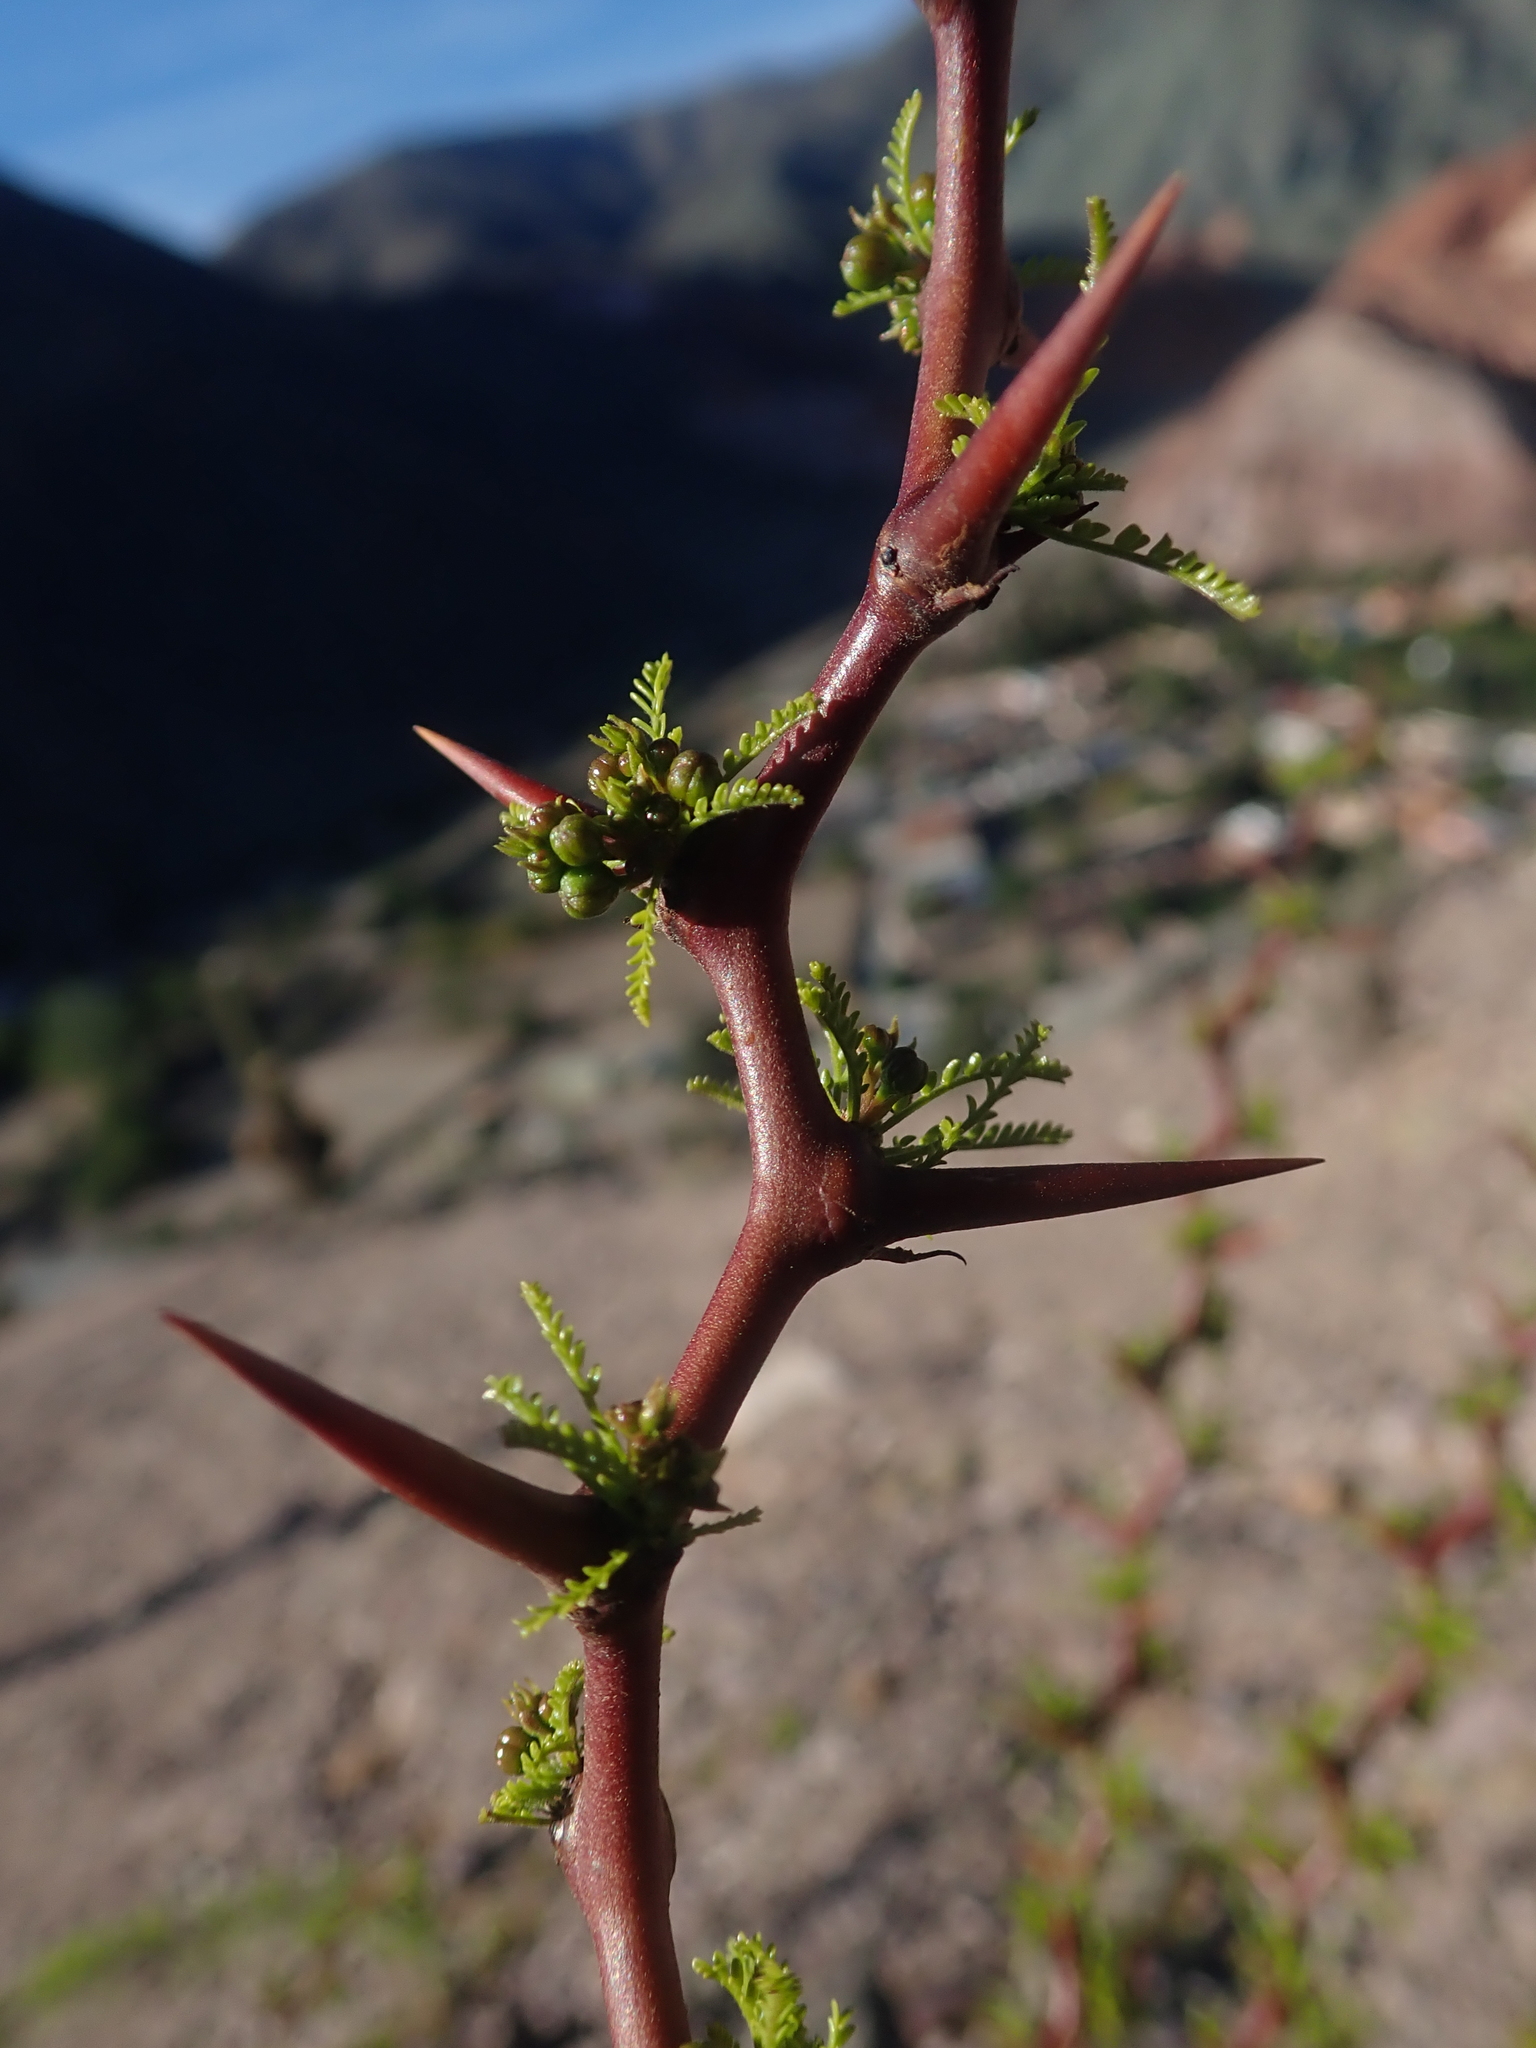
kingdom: Plantae
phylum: Tracheophyta
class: Magnoliopsida
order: Fabales
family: Fabaceae
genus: Parkinsonia
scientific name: Parkinsonia andicola
